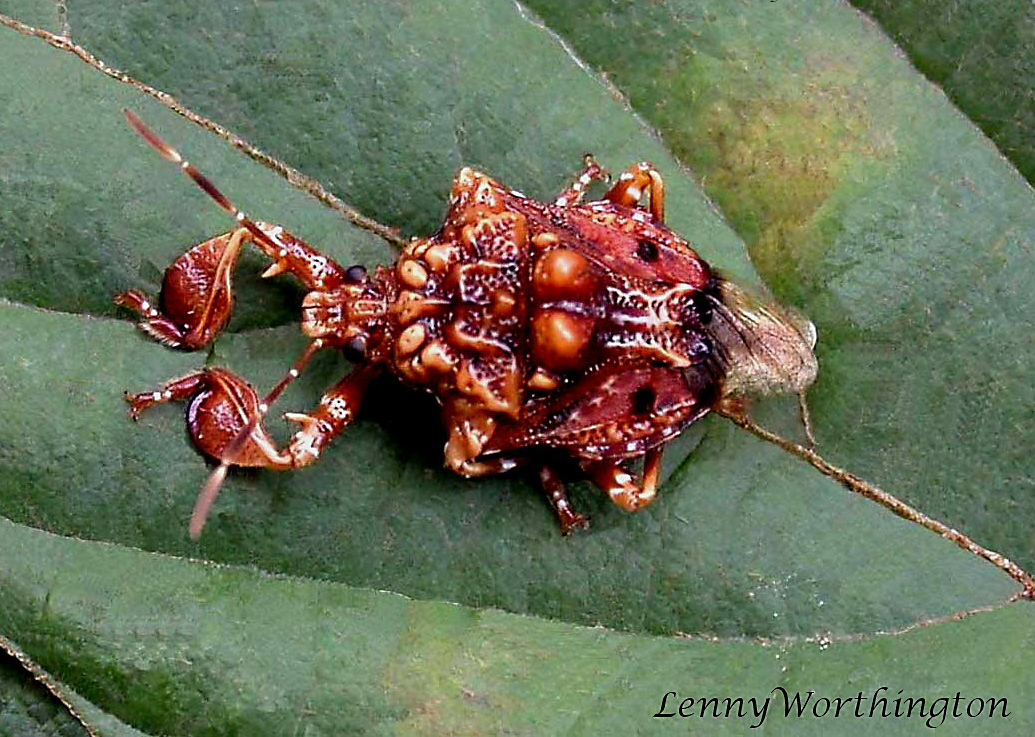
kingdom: Animalia
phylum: Arthropoda
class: Insecta
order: Hemiptera
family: Pentatomidae
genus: Cazira
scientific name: Cazira verrucosa
